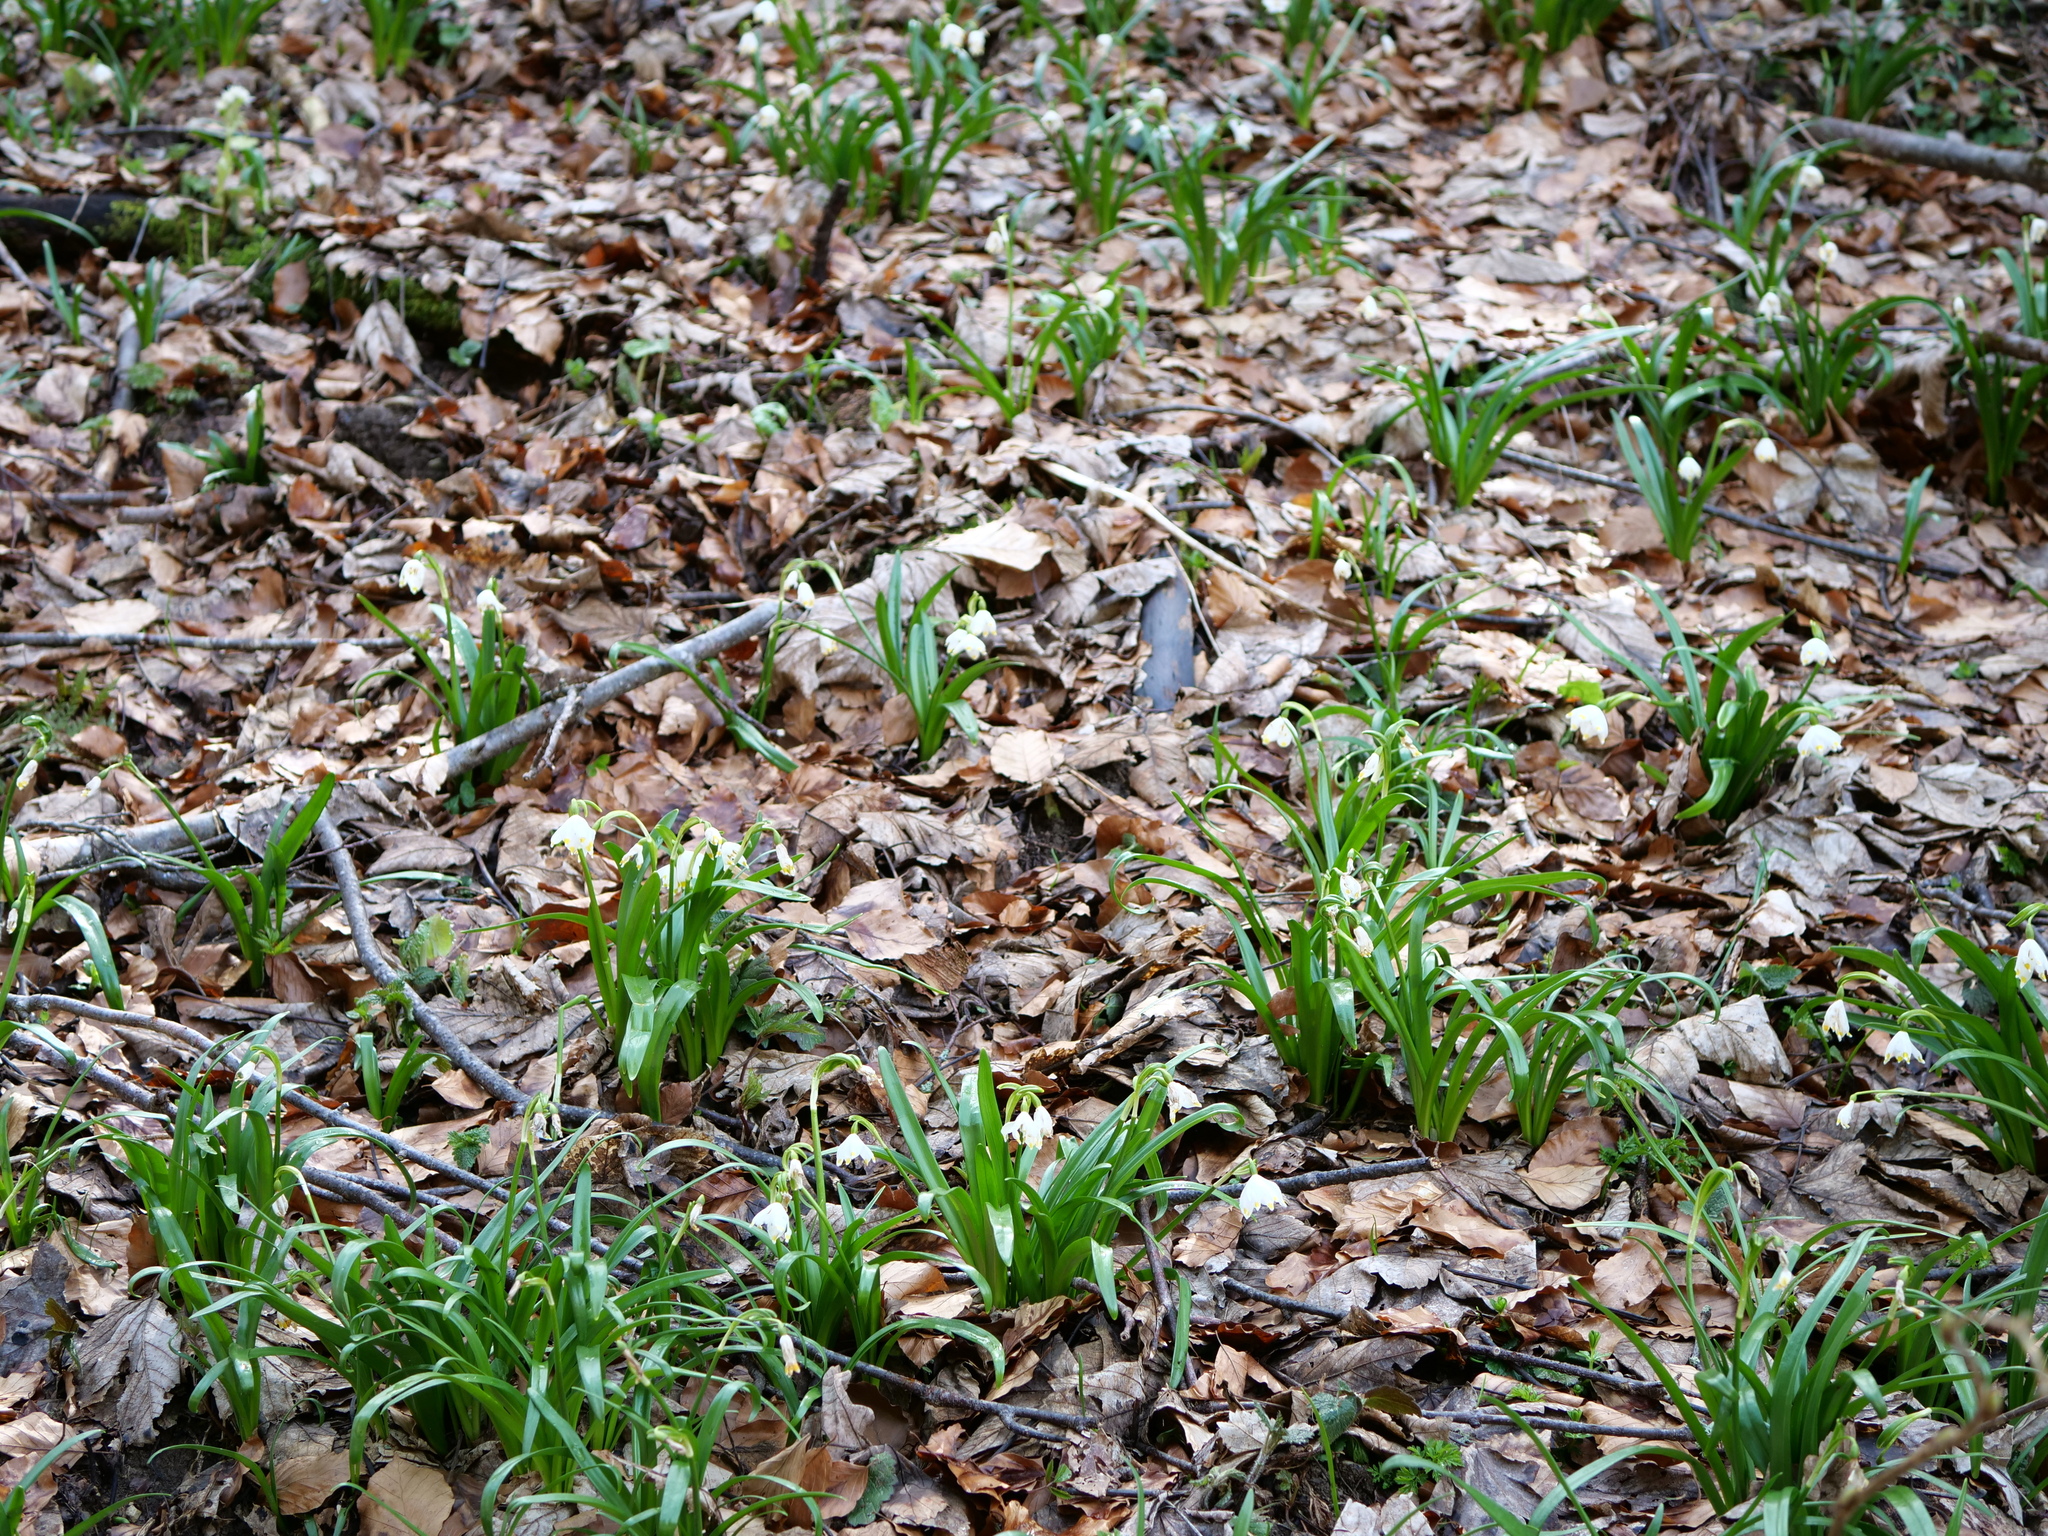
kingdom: Plantae
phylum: Tracheophyta
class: Liliopsida
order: Asparagales
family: Amaryllidaceae
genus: Leucojum
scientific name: Leucojum vernum
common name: Spring snowflake
